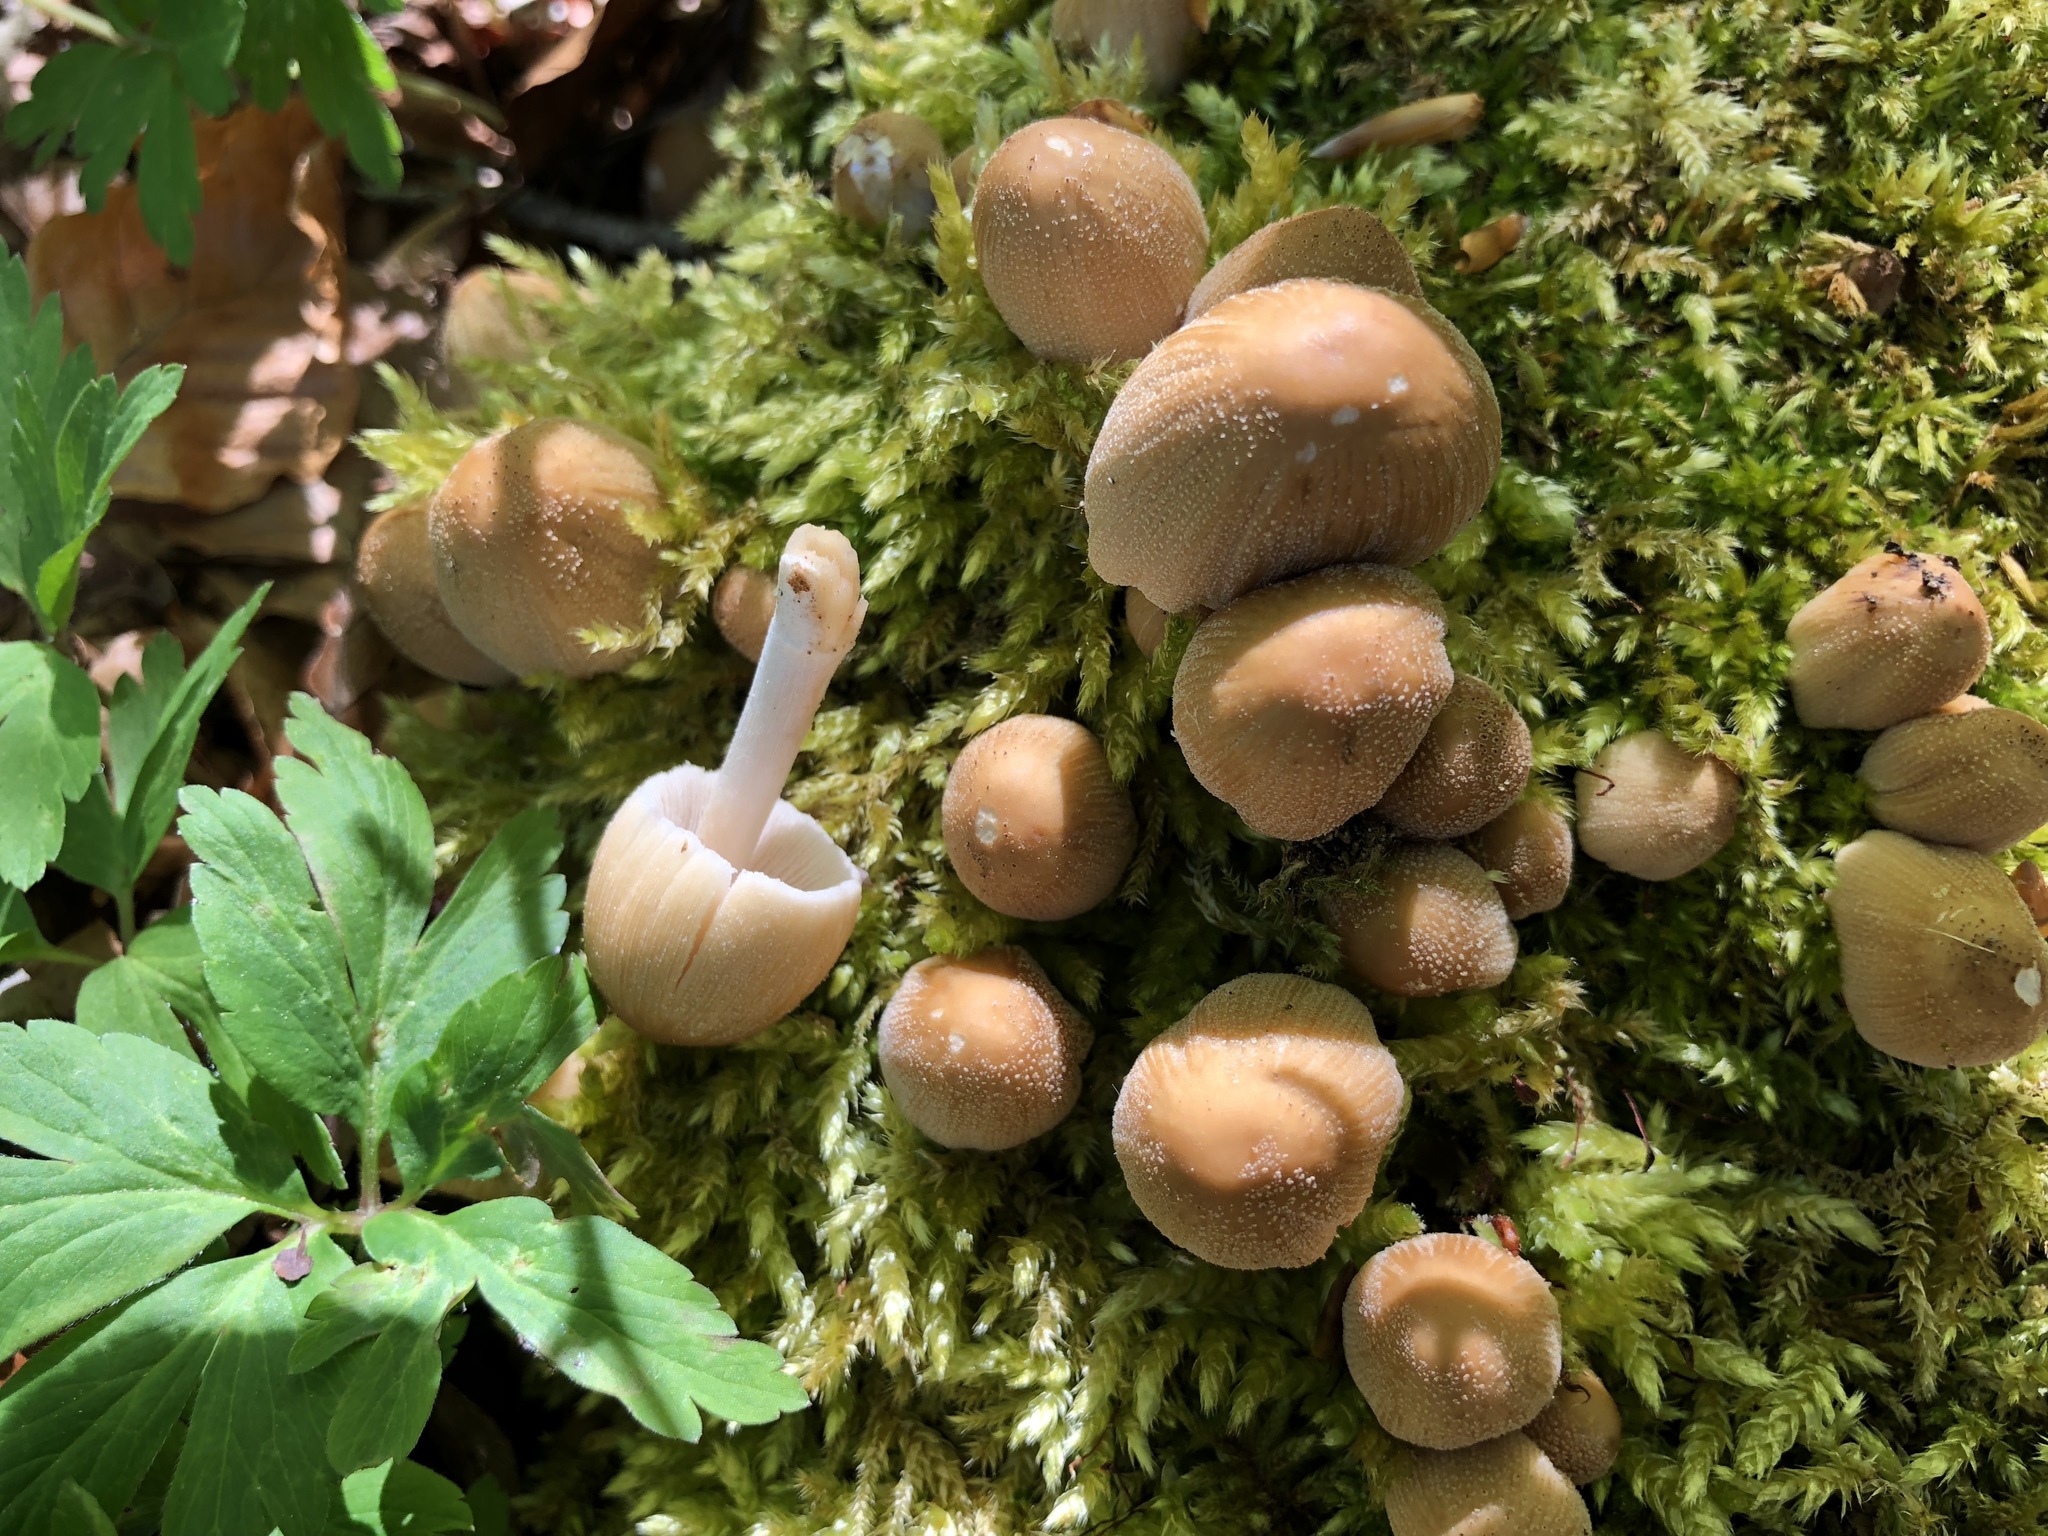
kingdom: Fungi
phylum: Basidiomycota
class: Agaricomycetes
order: Agaricales
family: Psathyrellaceae
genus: Coprinellus
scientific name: Coprinellus micaceus
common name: Glistening ink-cap
